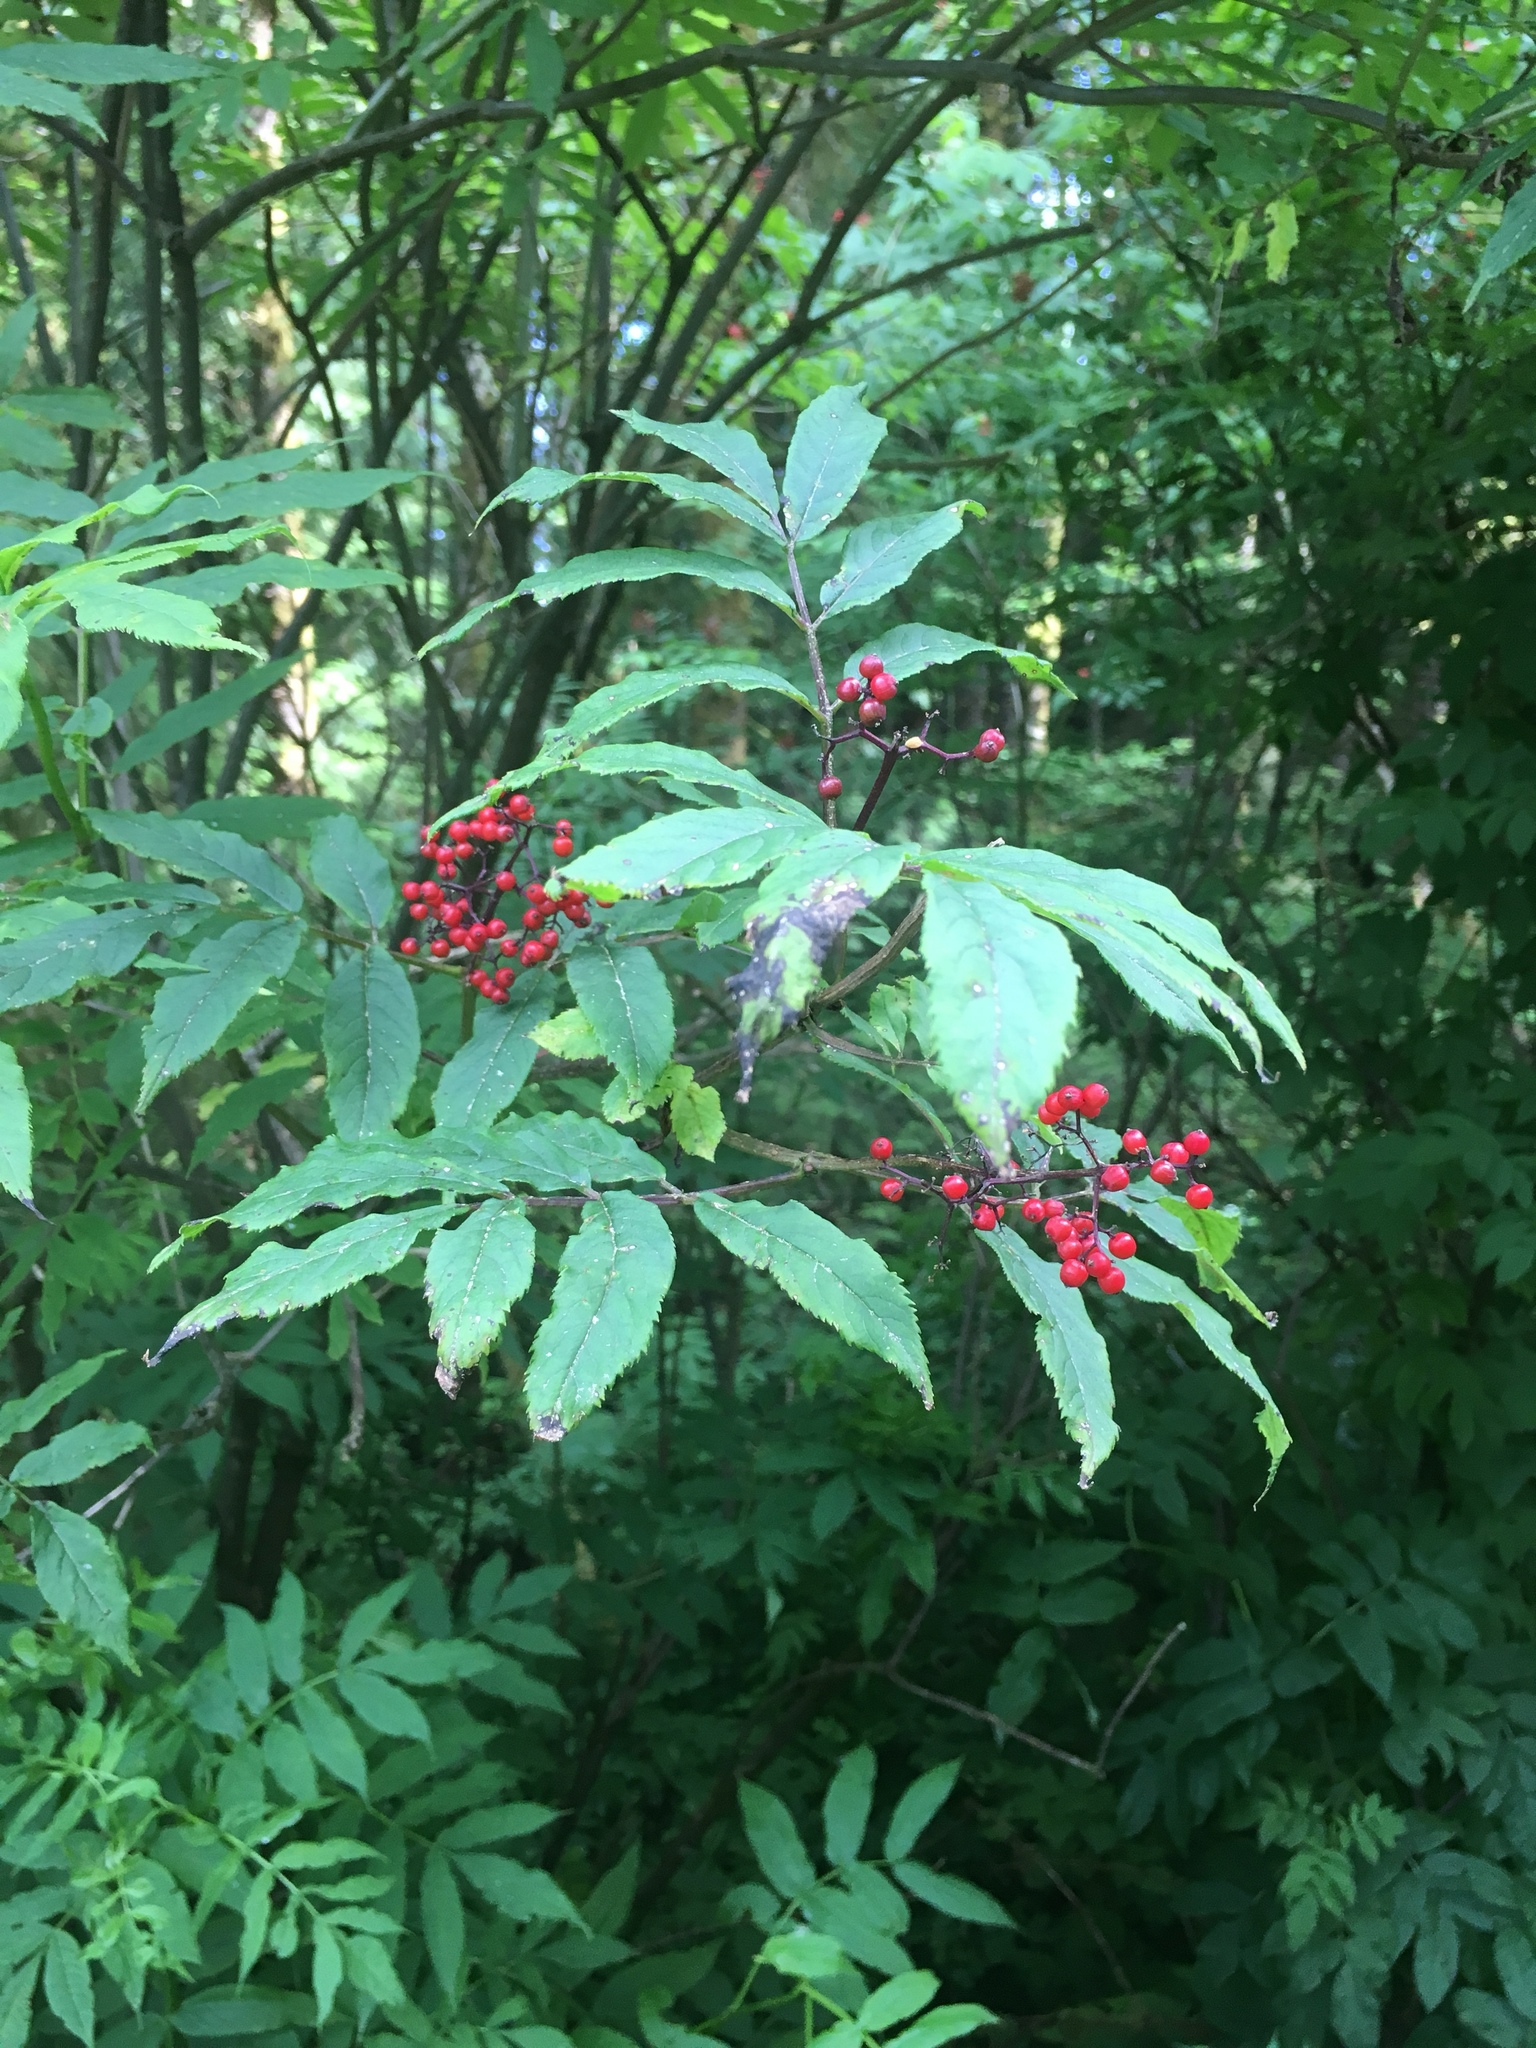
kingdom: Plantae
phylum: Tracheophyta
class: Magnoliopsida
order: Dipsacales
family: Viburnaceae
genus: Sambucus
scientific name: Sambucus racemosa
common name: Red-berried elder
